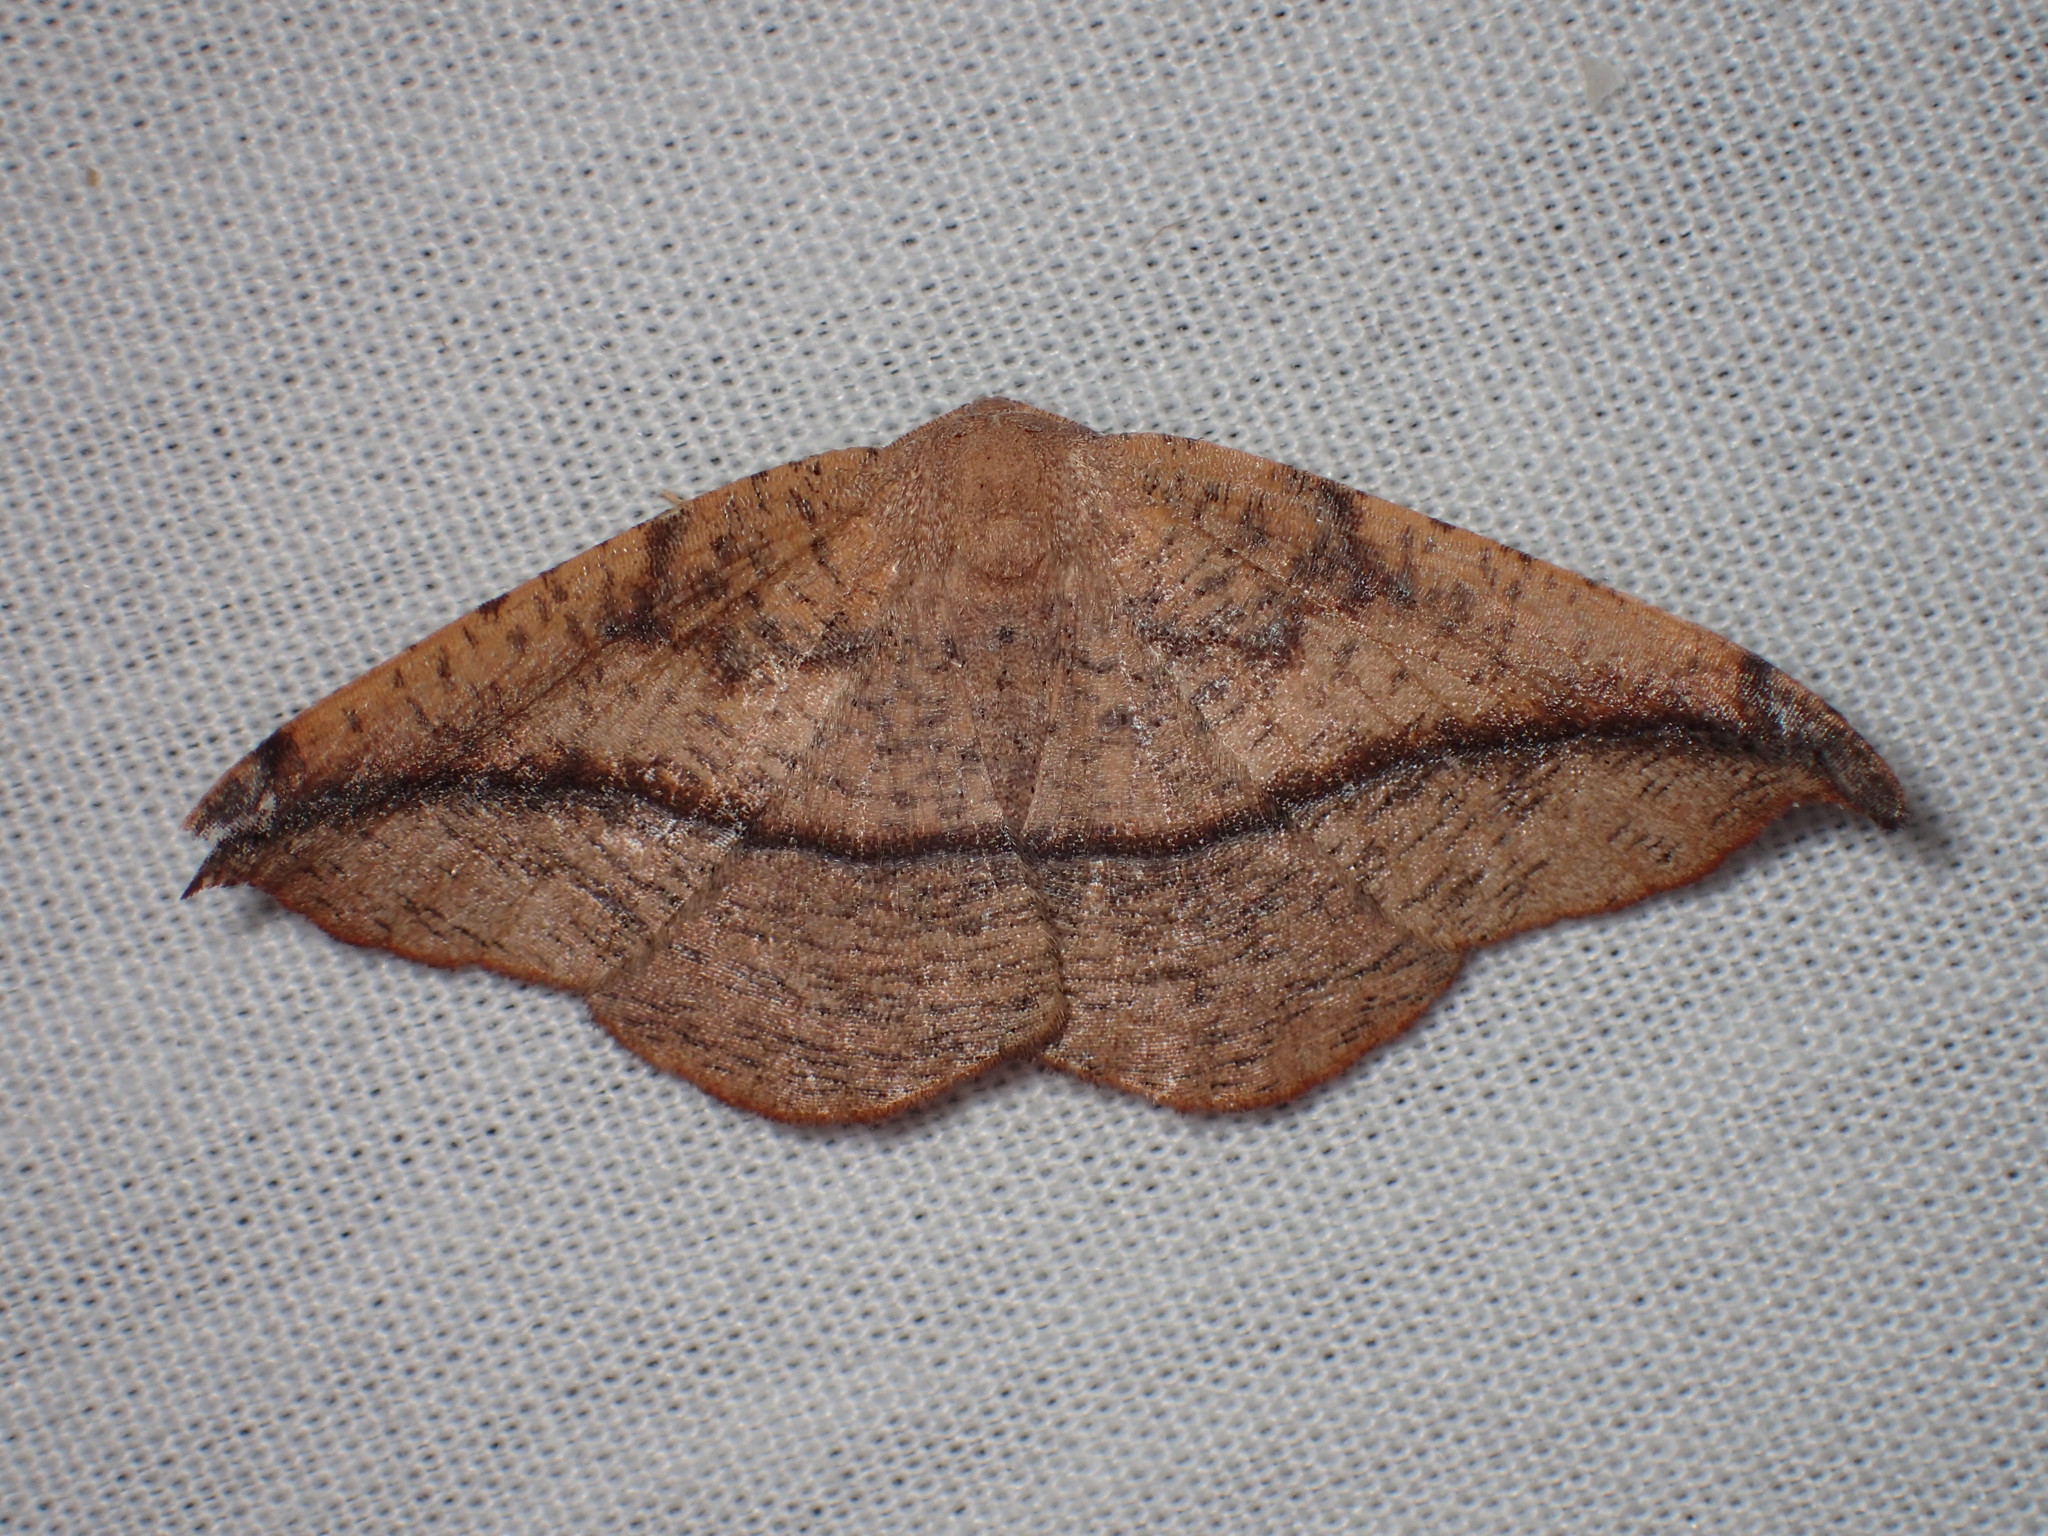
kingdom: Animalia
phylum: Arthropoda
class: Insecta
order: Lepidoptera
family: Geometridae
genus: Patalene
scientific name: Patalene olyzonaria
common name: Juniper geometer moth
